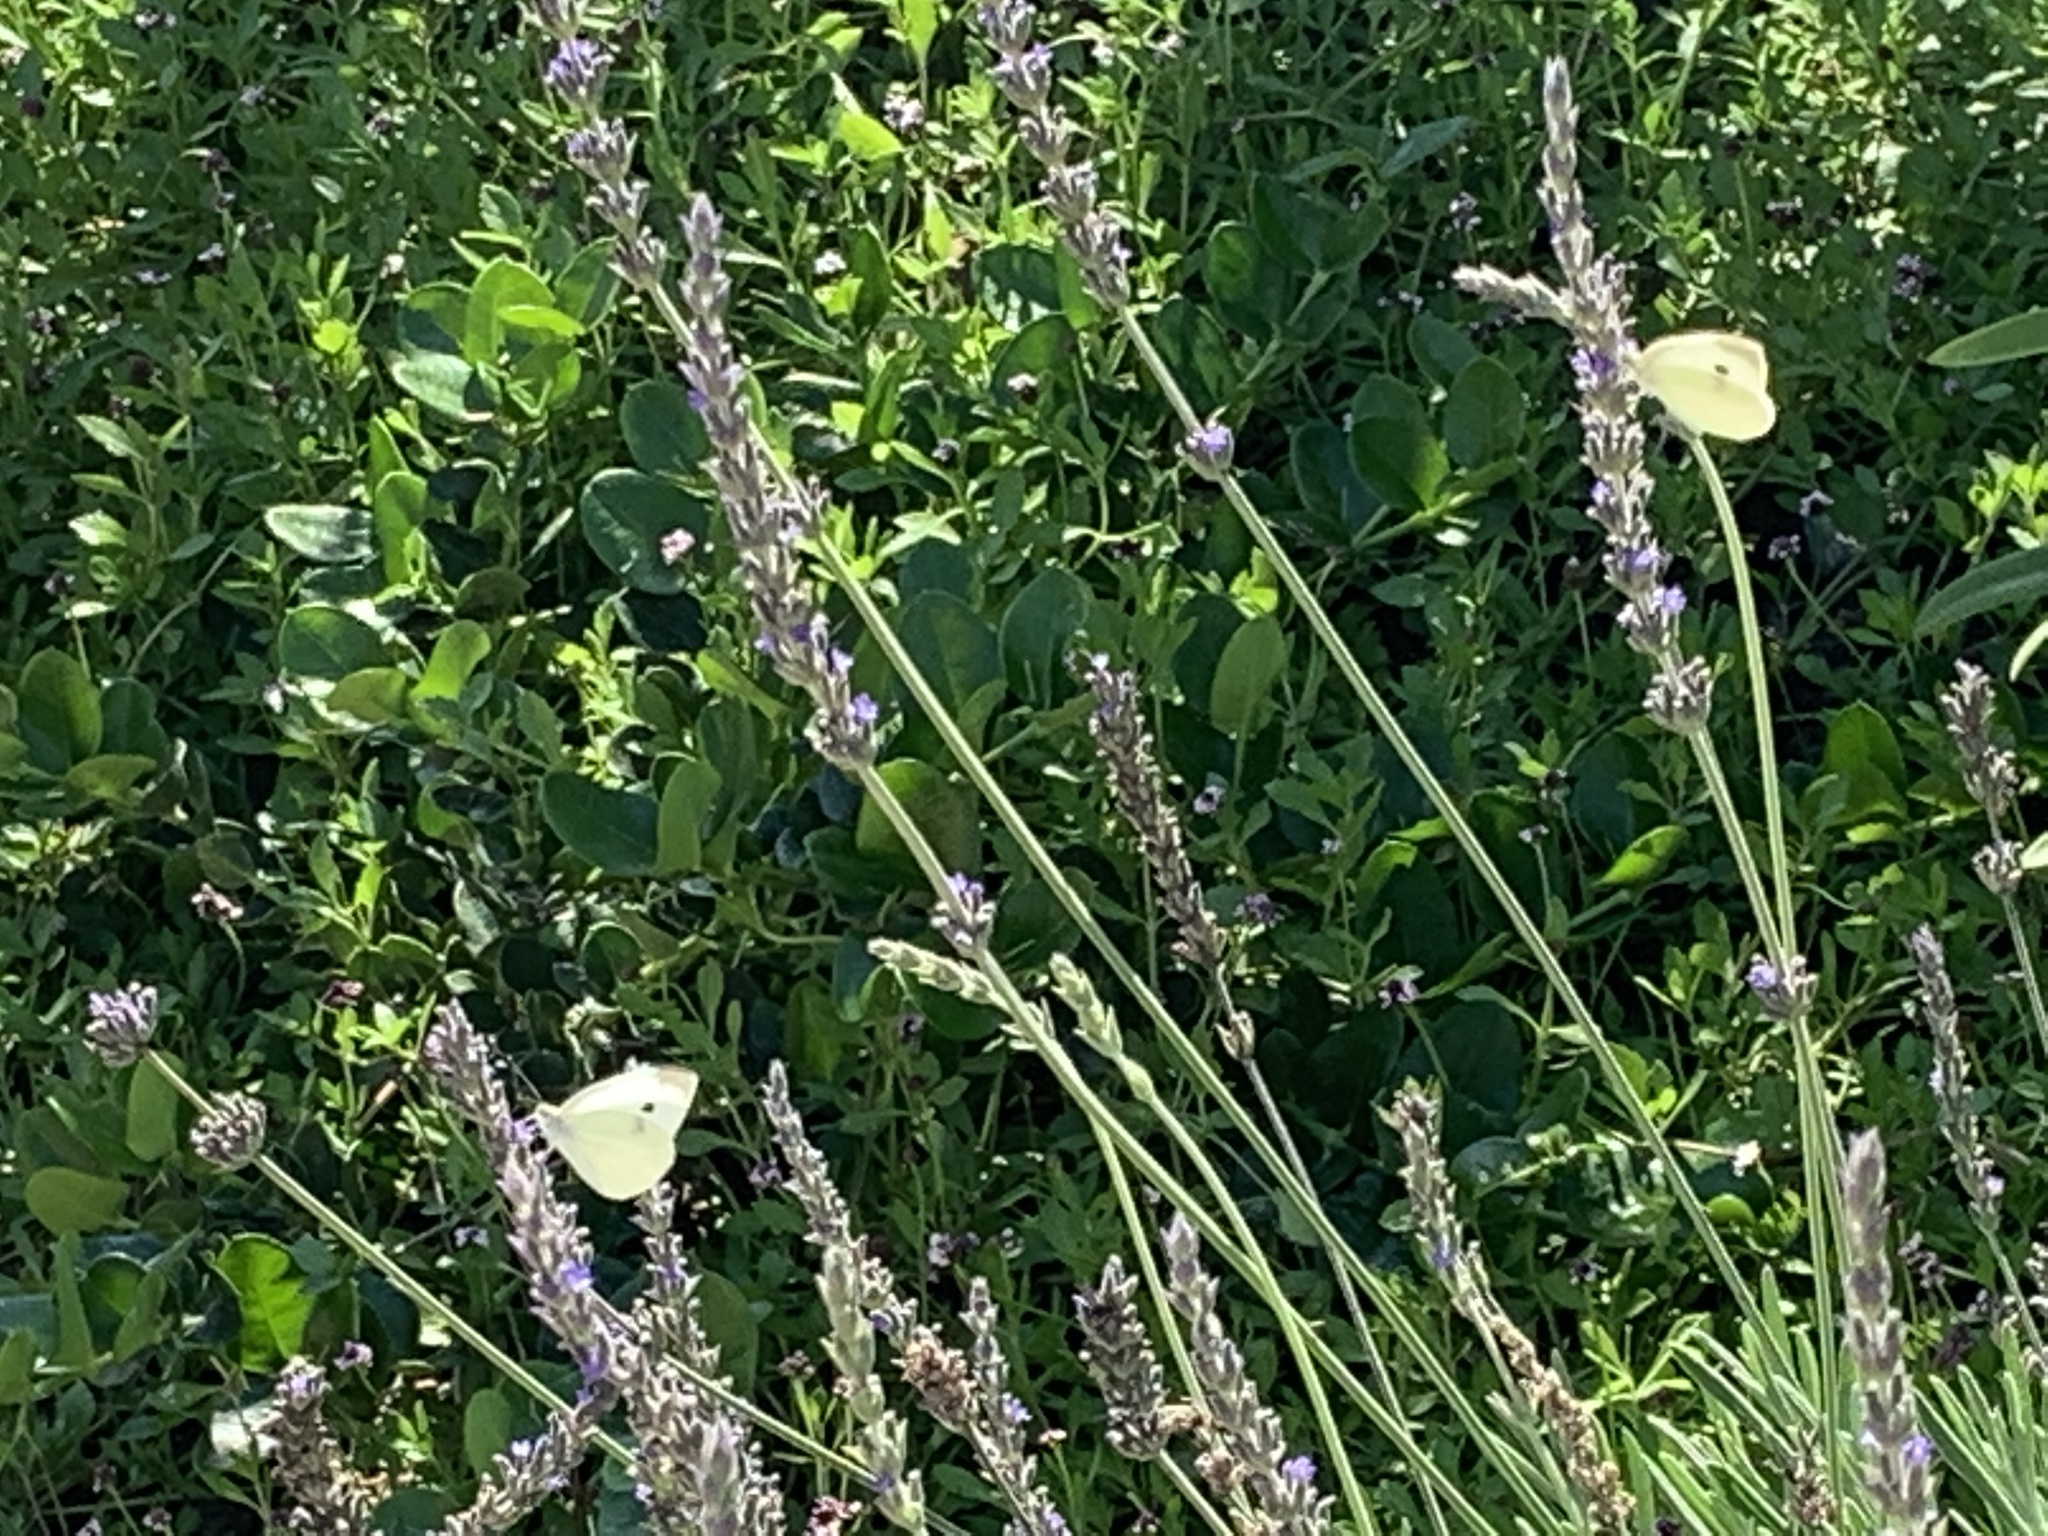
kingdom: Animalia
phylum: Arthropoda
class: Insecta
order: Lepidoptera
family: Pieridae
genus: Pieris
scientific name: Pieris rapae
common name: Small white
